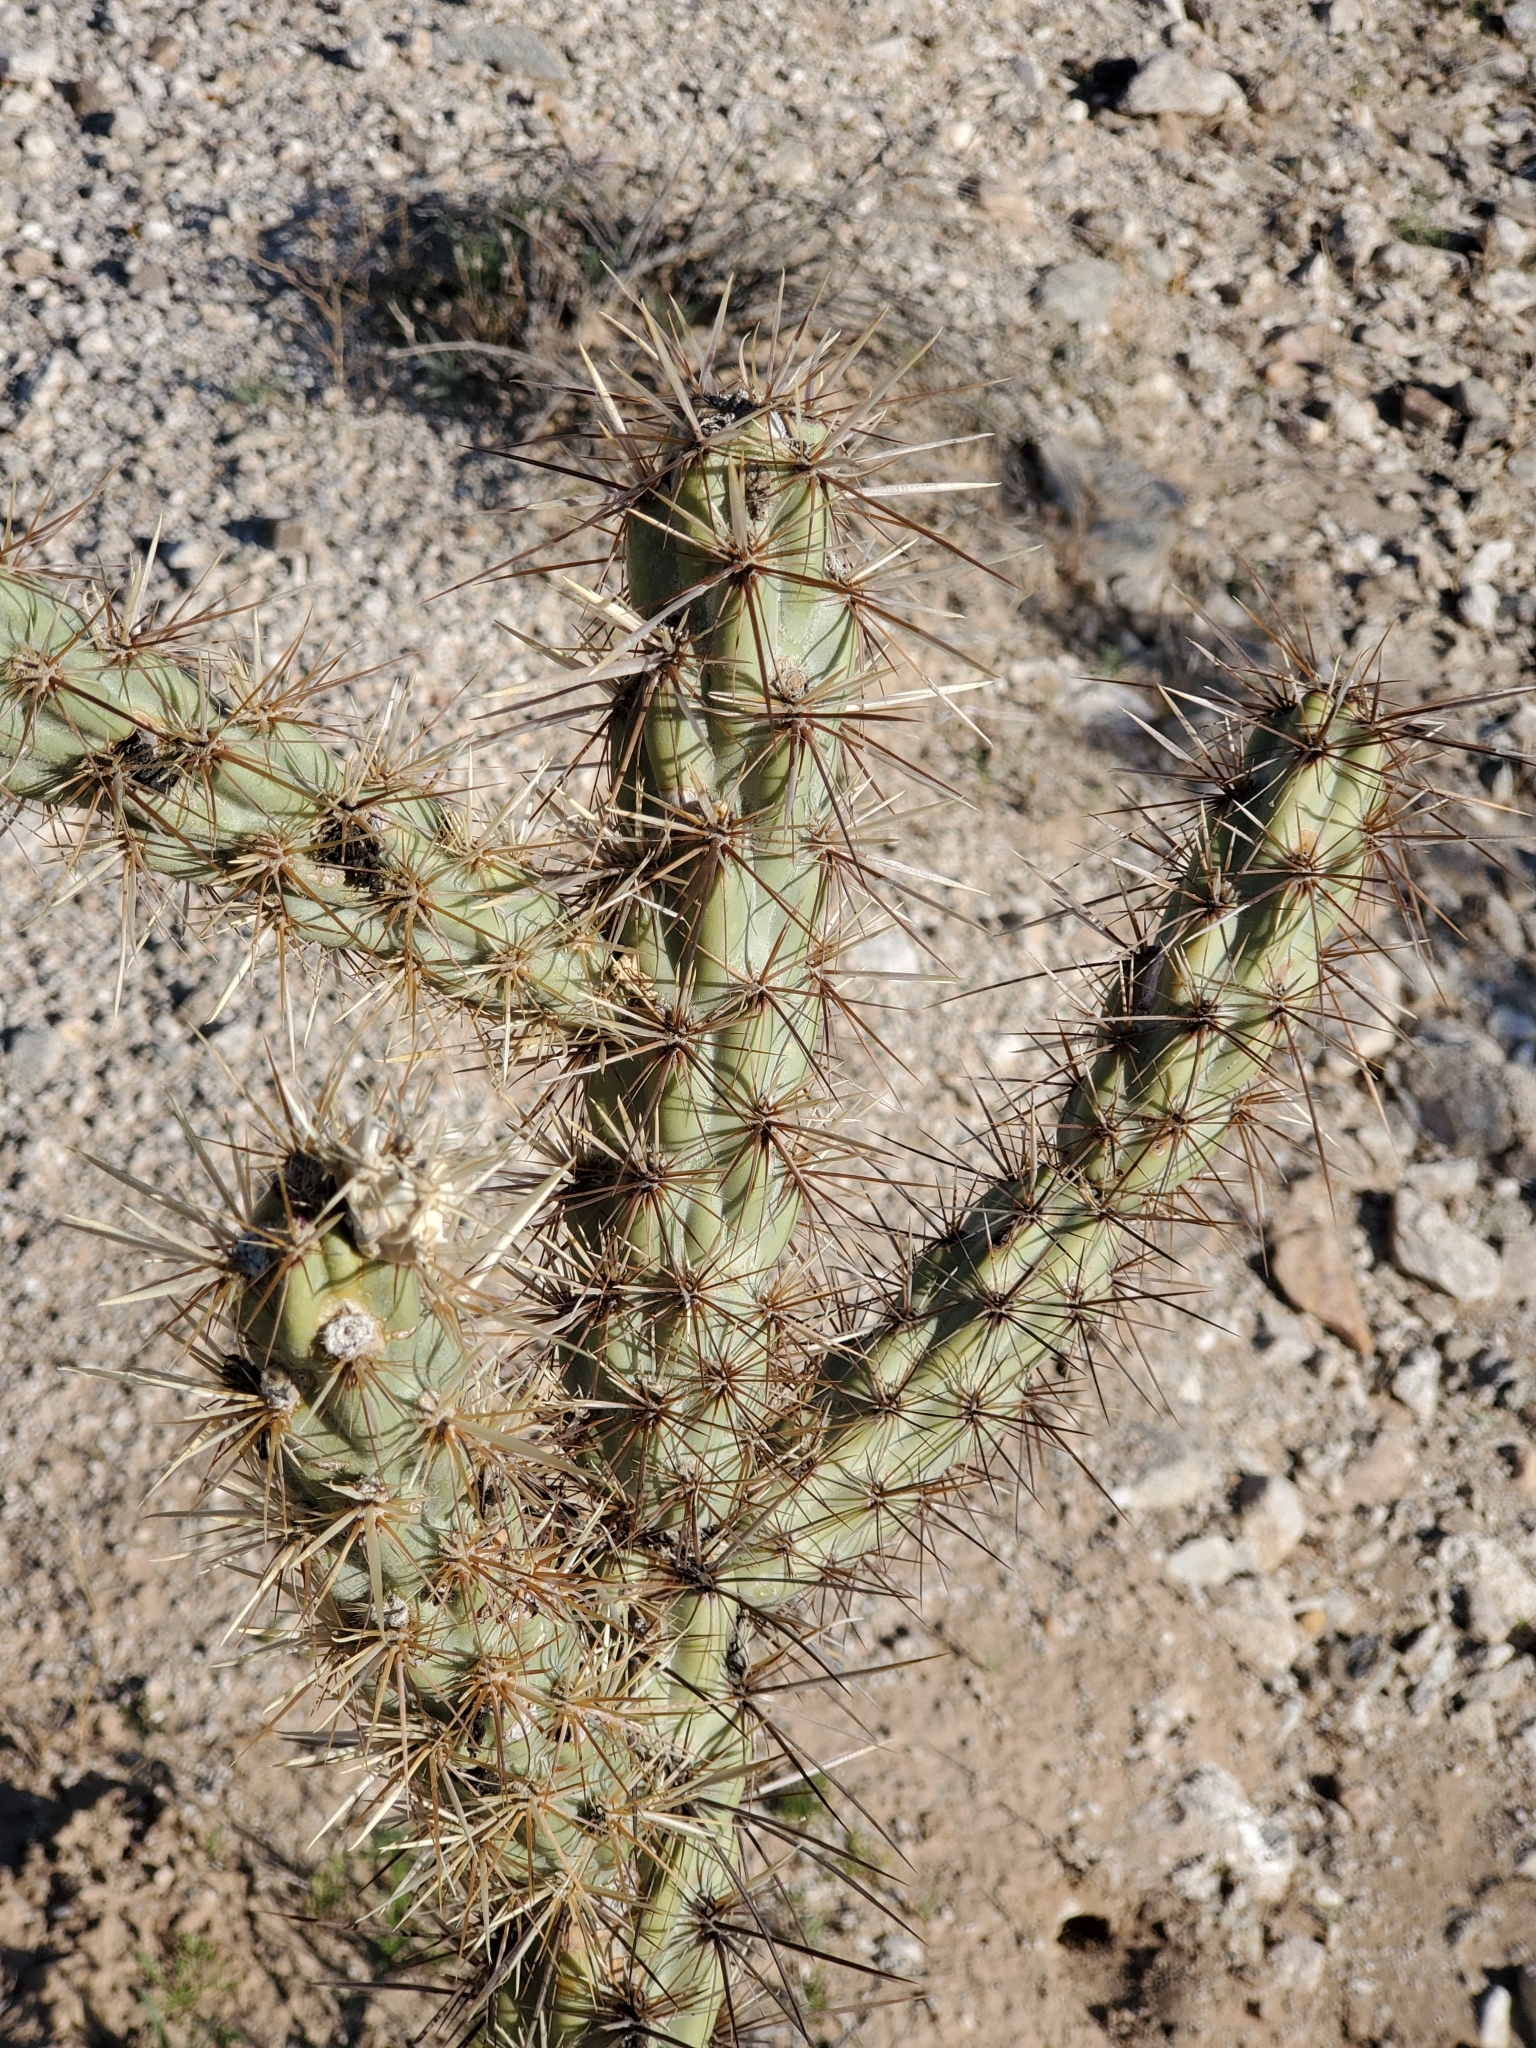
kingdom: Plantae
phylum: Tracheophyta
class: Magnoliopsida
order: Caryophyllales
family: Cactaceae
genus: Cylindropuntia
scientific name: Cylindropuntia acanthocarpa
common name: Buckhorn cholla
